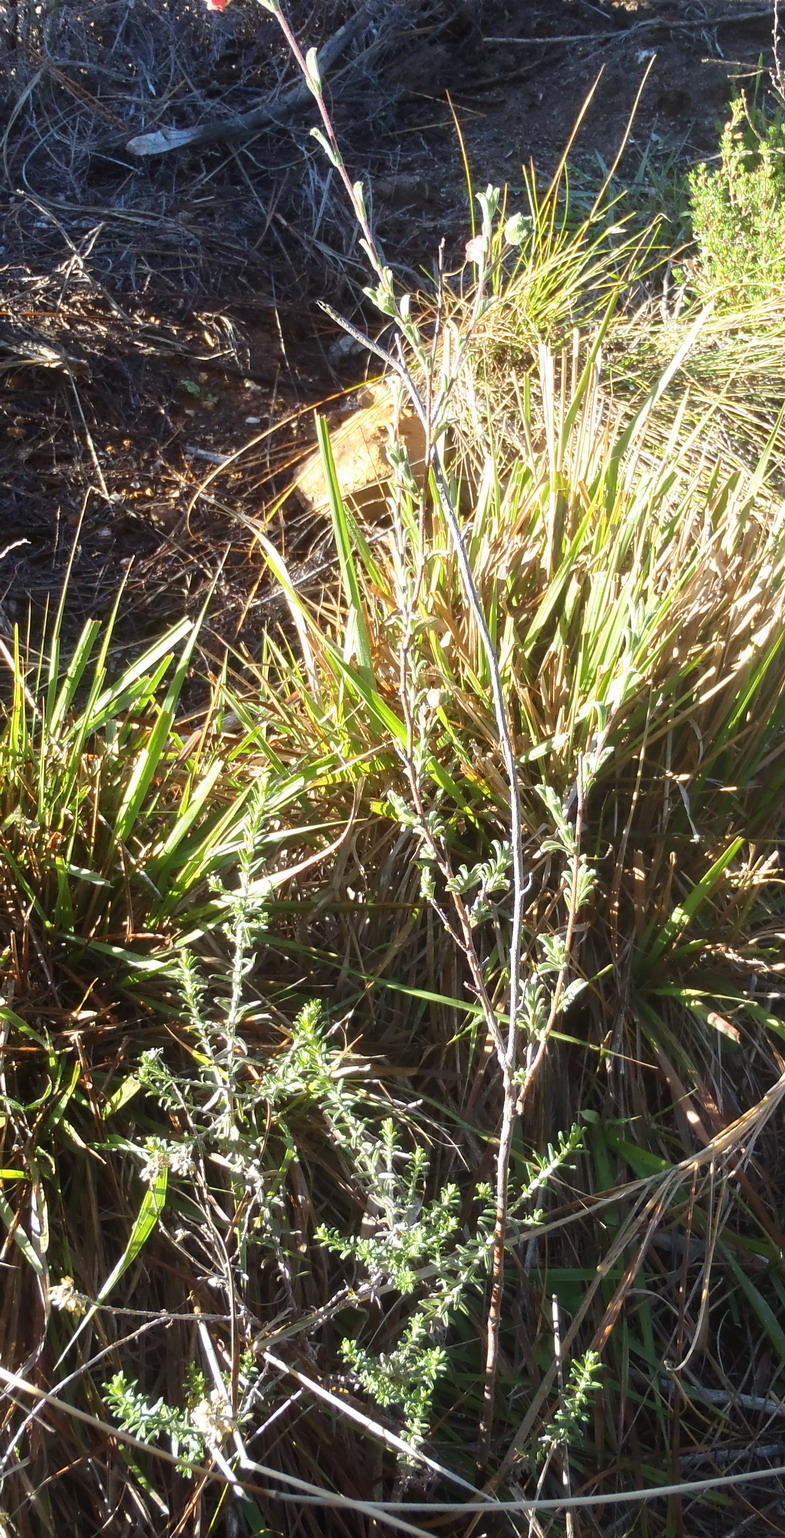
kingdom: Plantae
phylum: Tracheophyta
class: Magnoliopsida
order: Malvales
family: Malvaceae
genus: Hermannia
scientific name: Hermannia flammula
